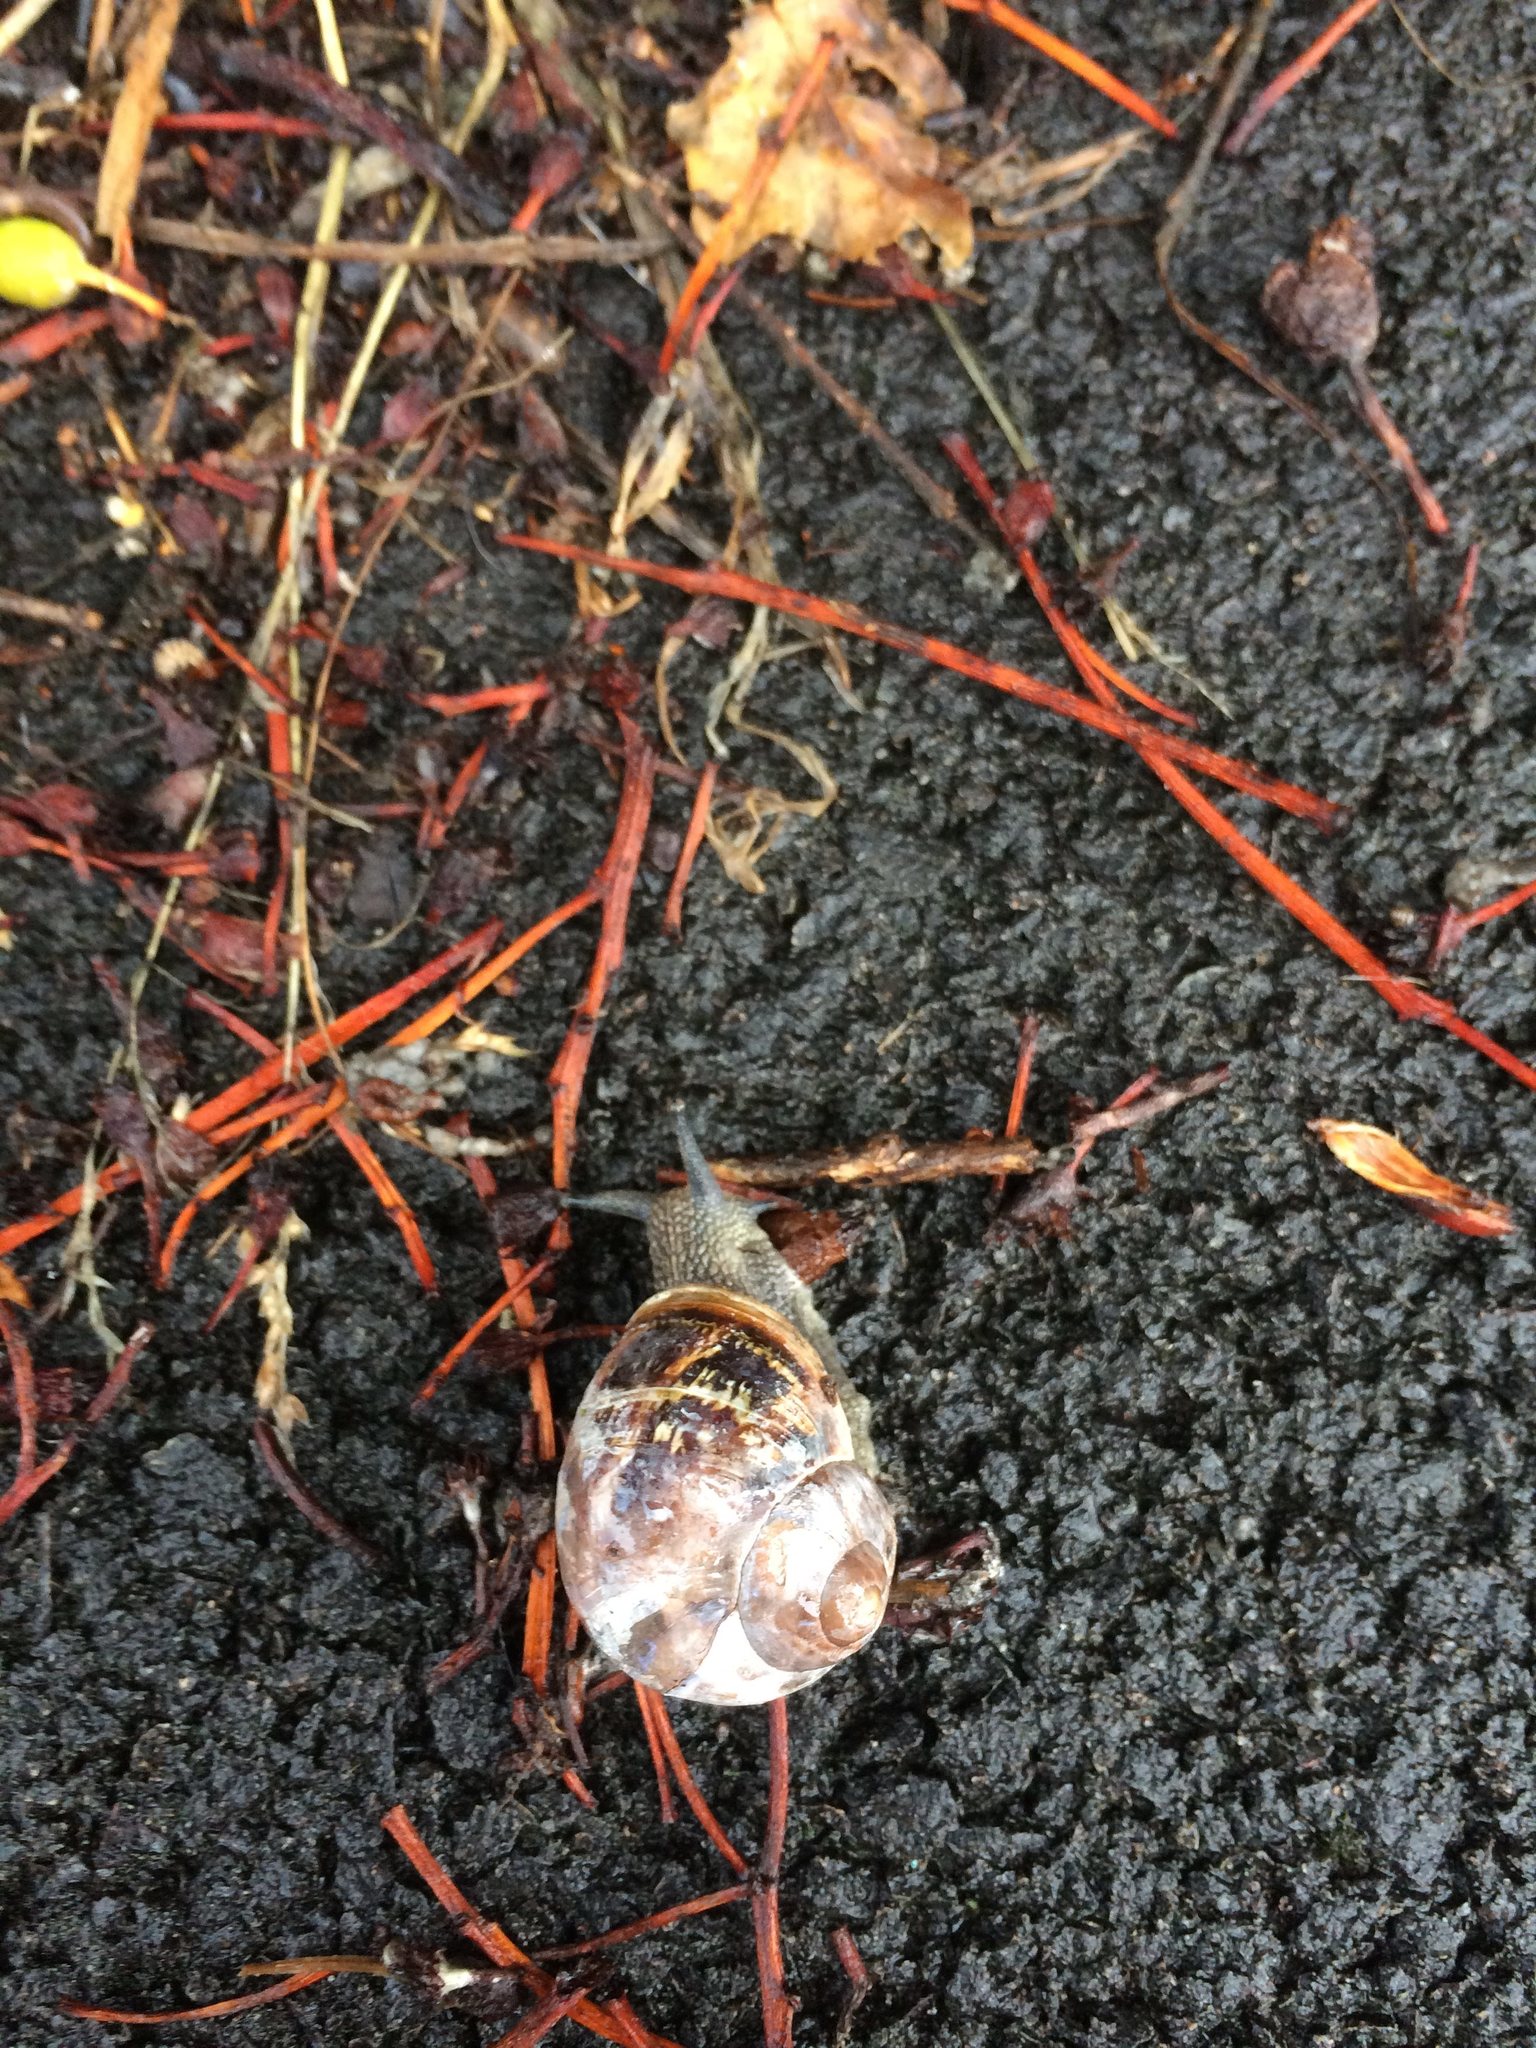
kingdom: Animalia
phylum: Mollusca
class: Gastropoda
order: Stylommatophora
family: Helicidae
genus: Cornu
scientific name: Cornu aspersum
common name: Brown garden snail
